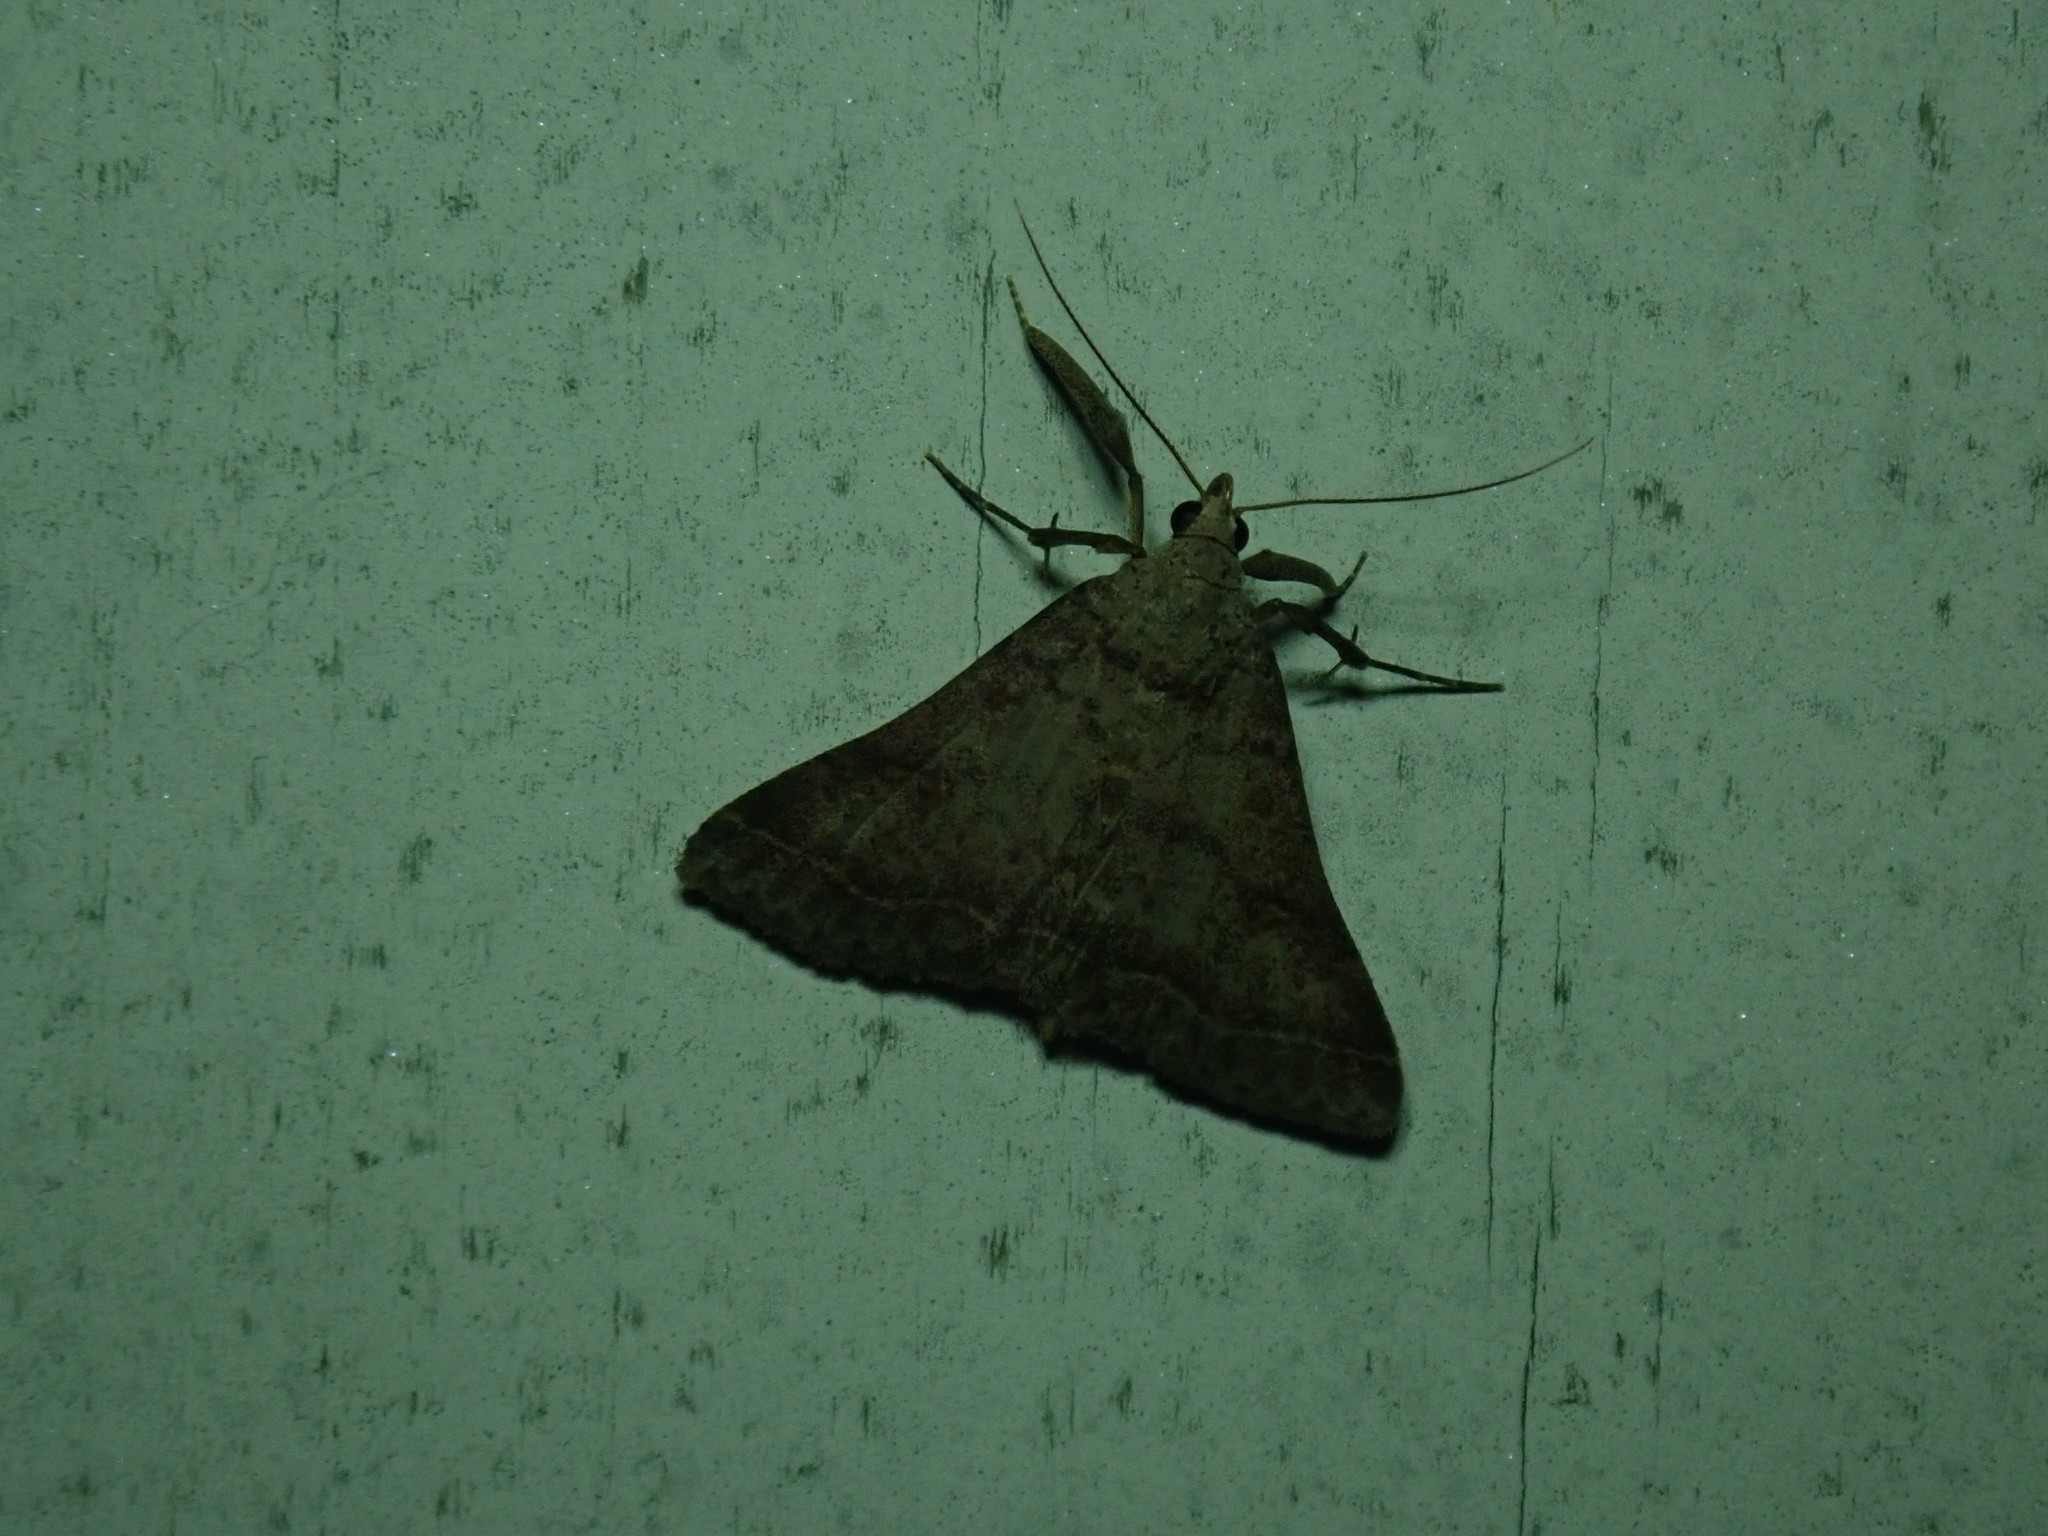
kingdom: Animalia
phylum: Arthropoda
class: Insecta
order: Lepidoptera
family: Erebidae
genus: Bleptina
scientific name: Bleptina caradrinalis
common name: Bent-winged owlet
